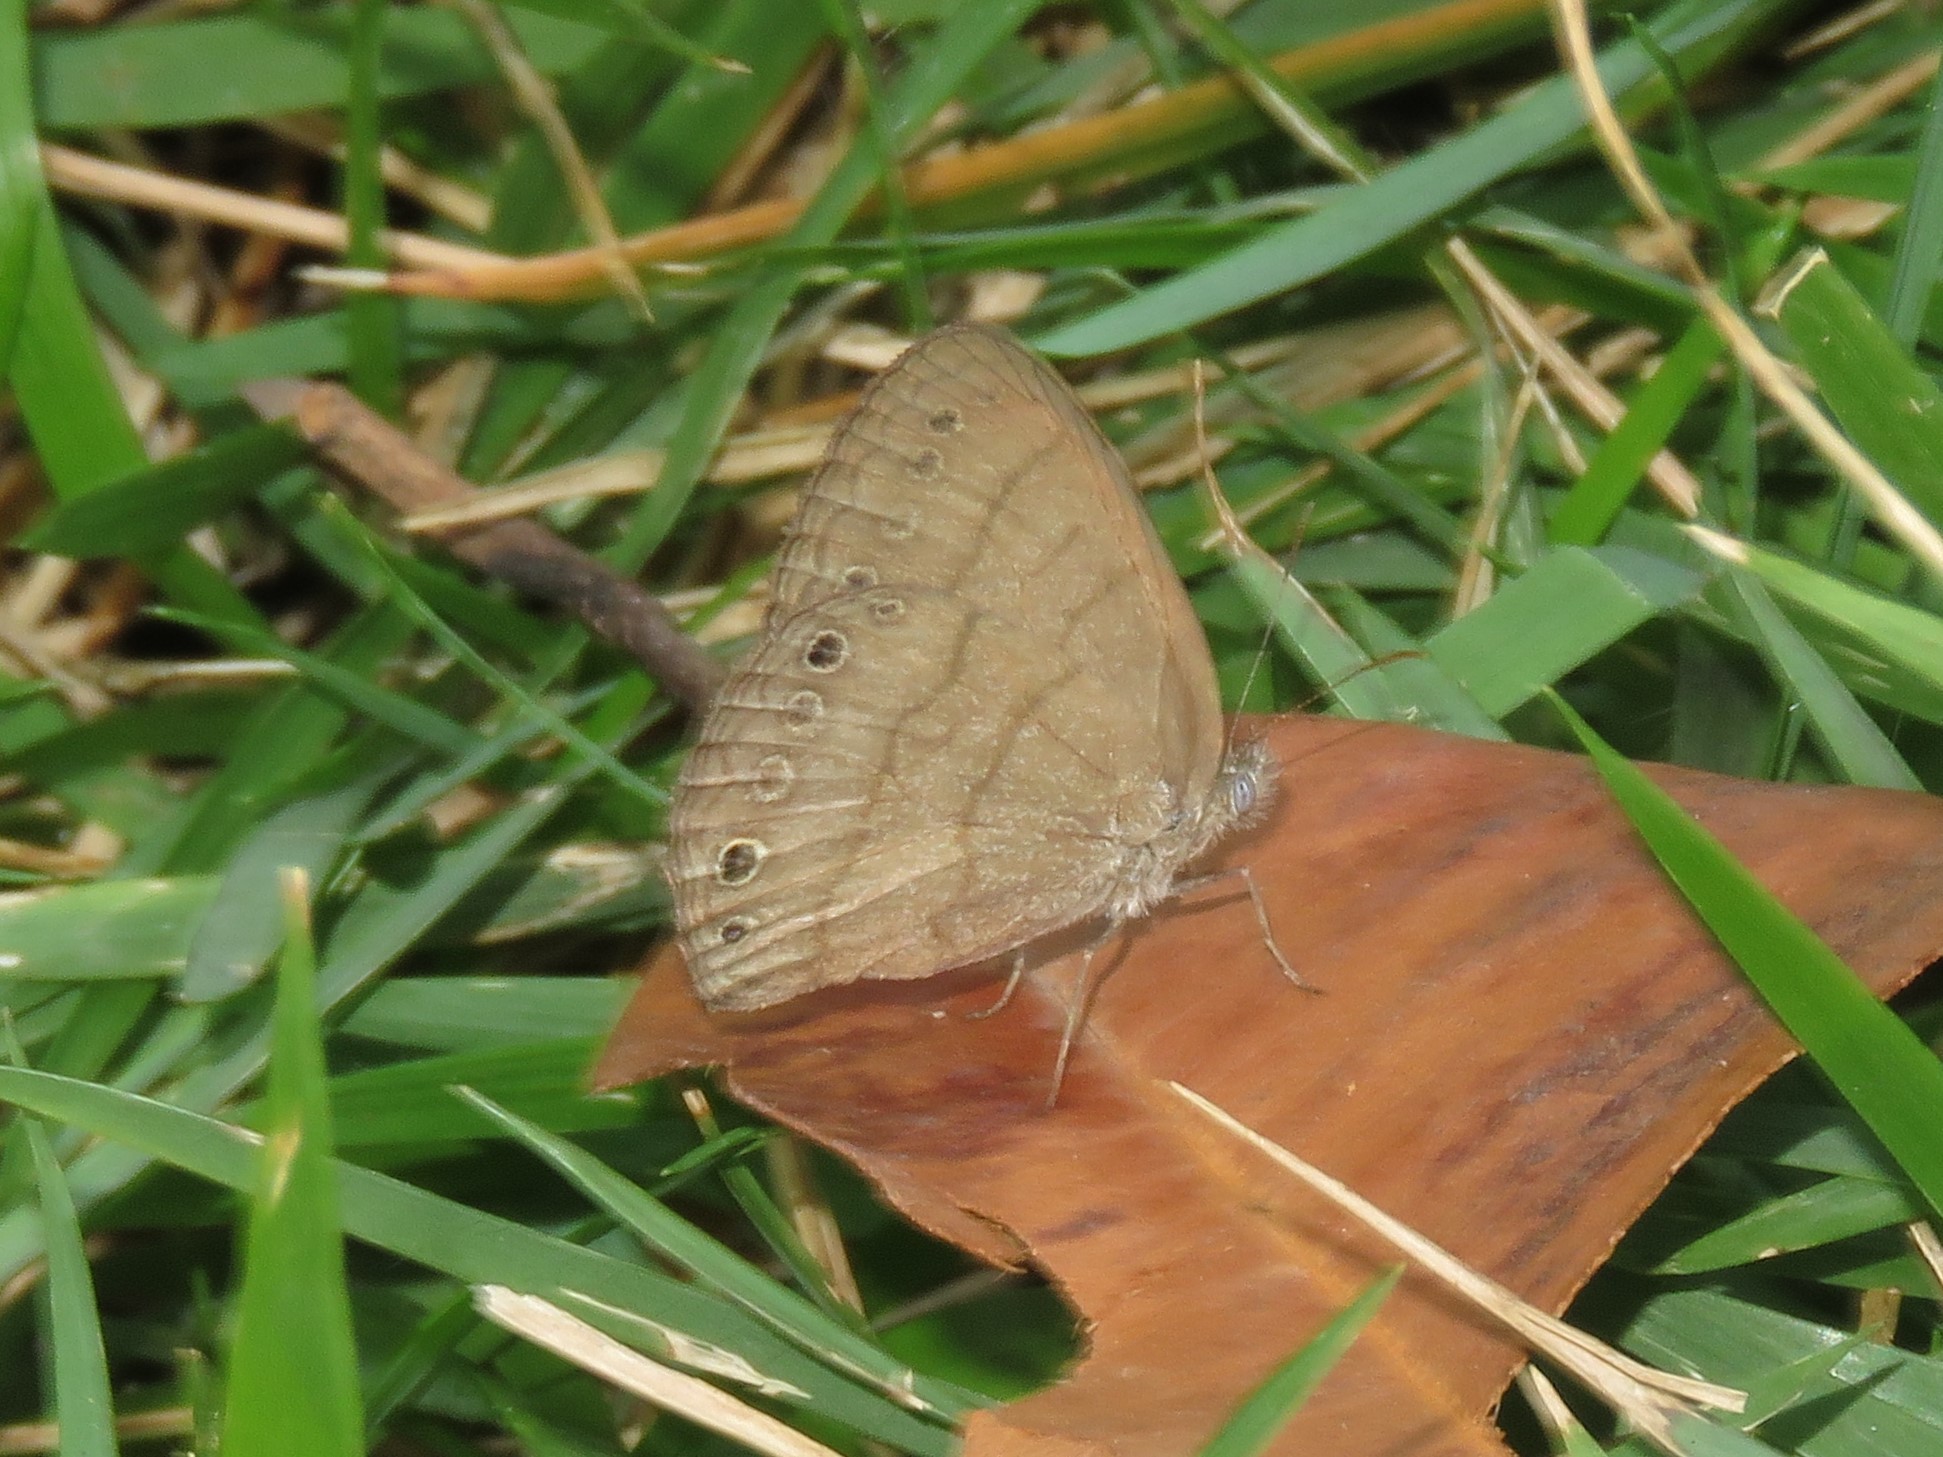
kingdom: Animalia
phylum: Arthropoda
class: Insecta
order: Lepidoptera
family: Nymphalidae
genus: Hermeuptychia
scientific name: Hermeuptychia hermes
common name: Hermes satyr
